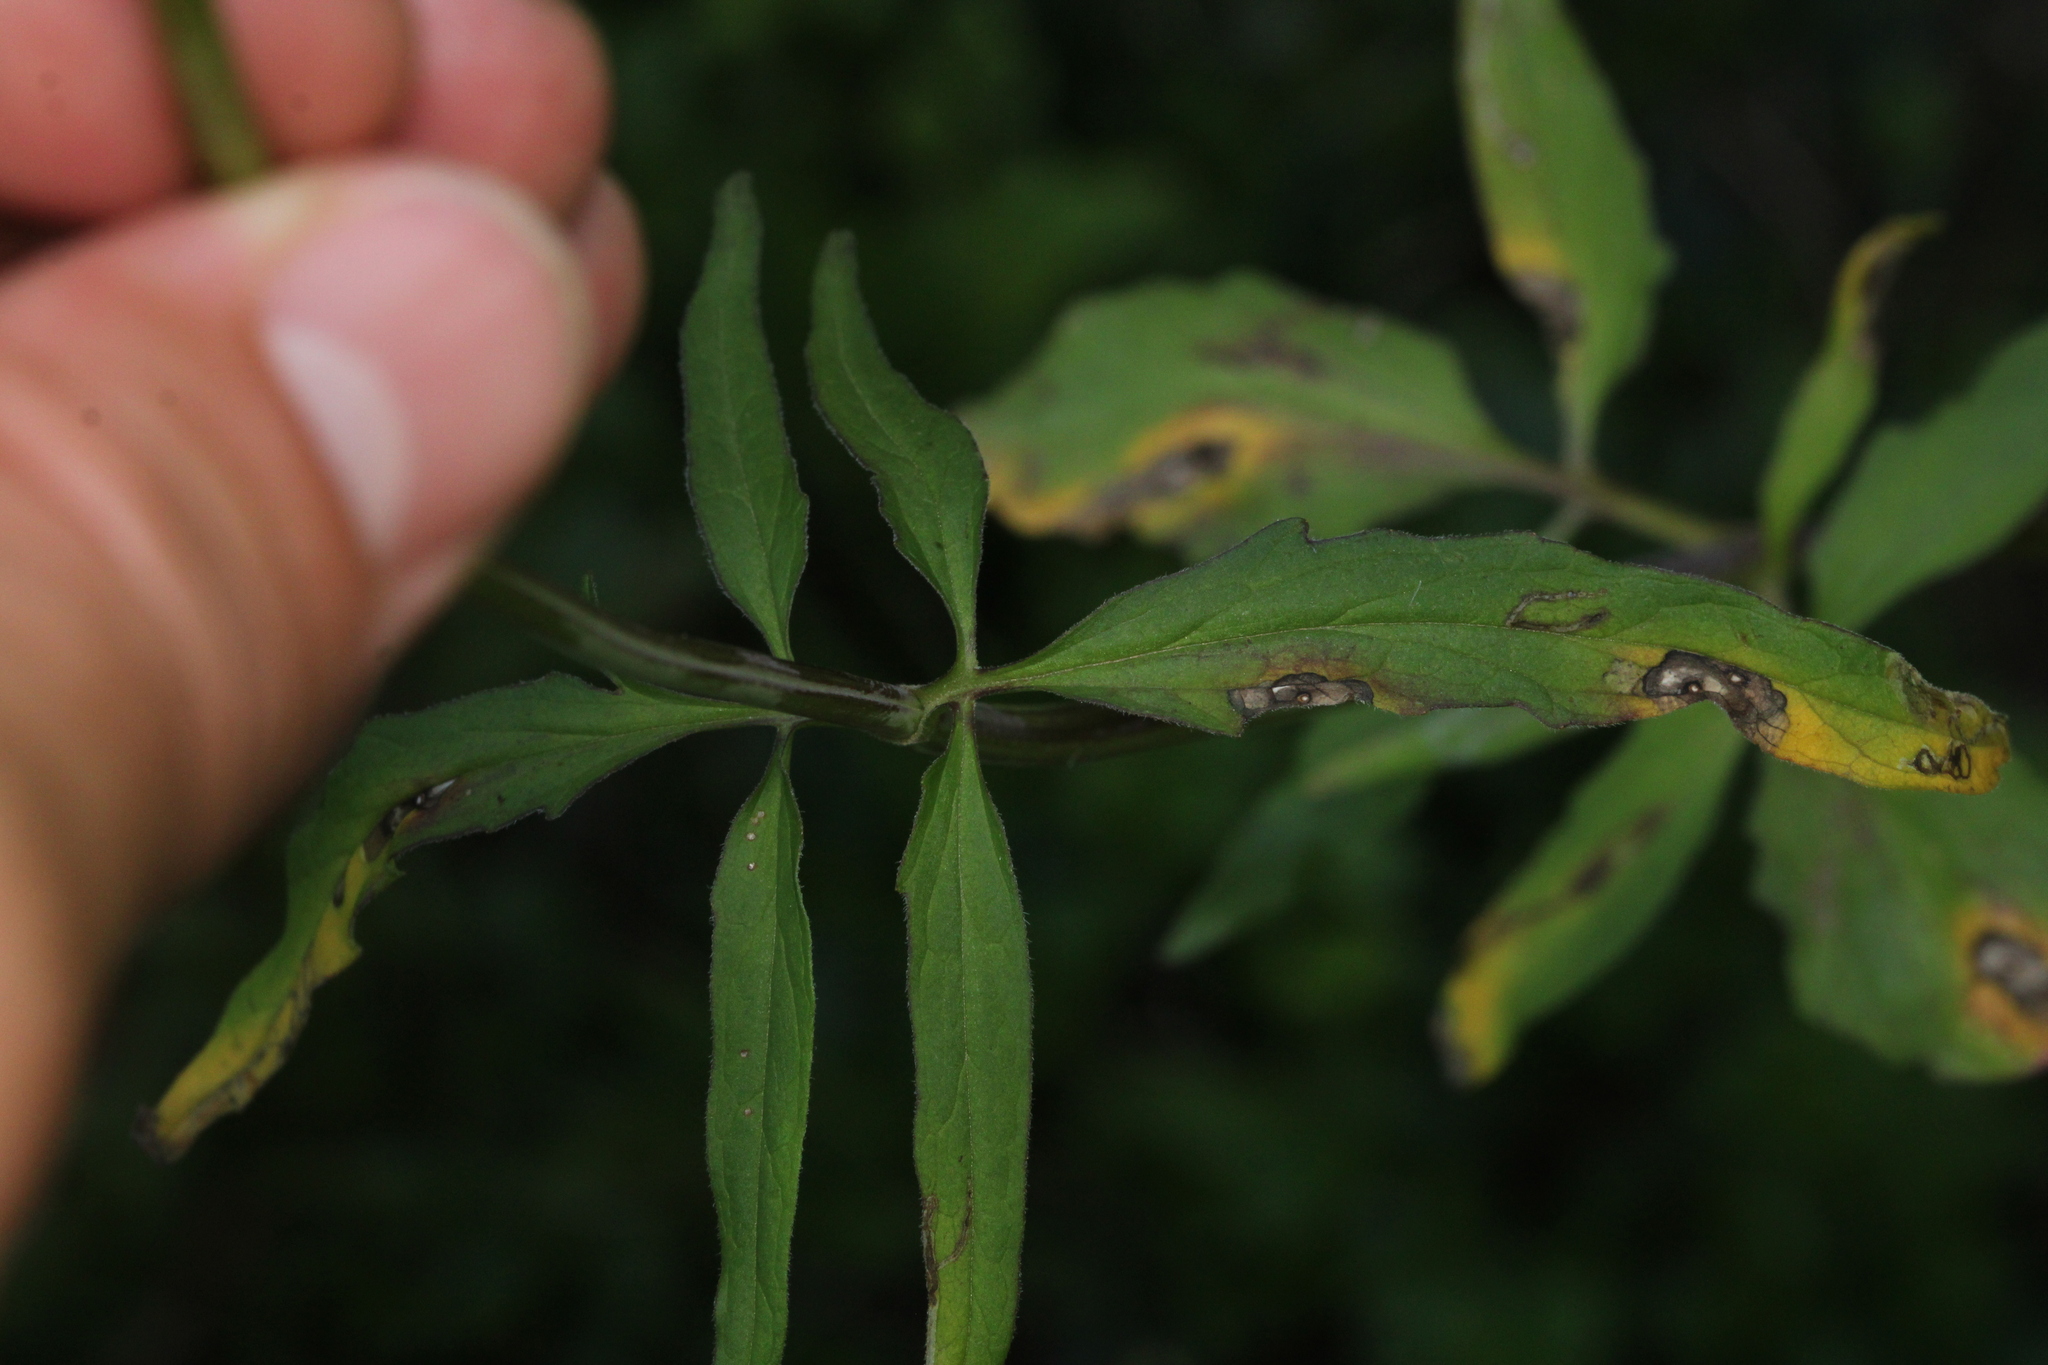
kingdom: Plantae
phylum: Tracheophyta
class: Magnoliopsida
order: Dipsacales
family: Caprifoliaceae
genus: Valeriana
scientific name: Valeriana tripteris
